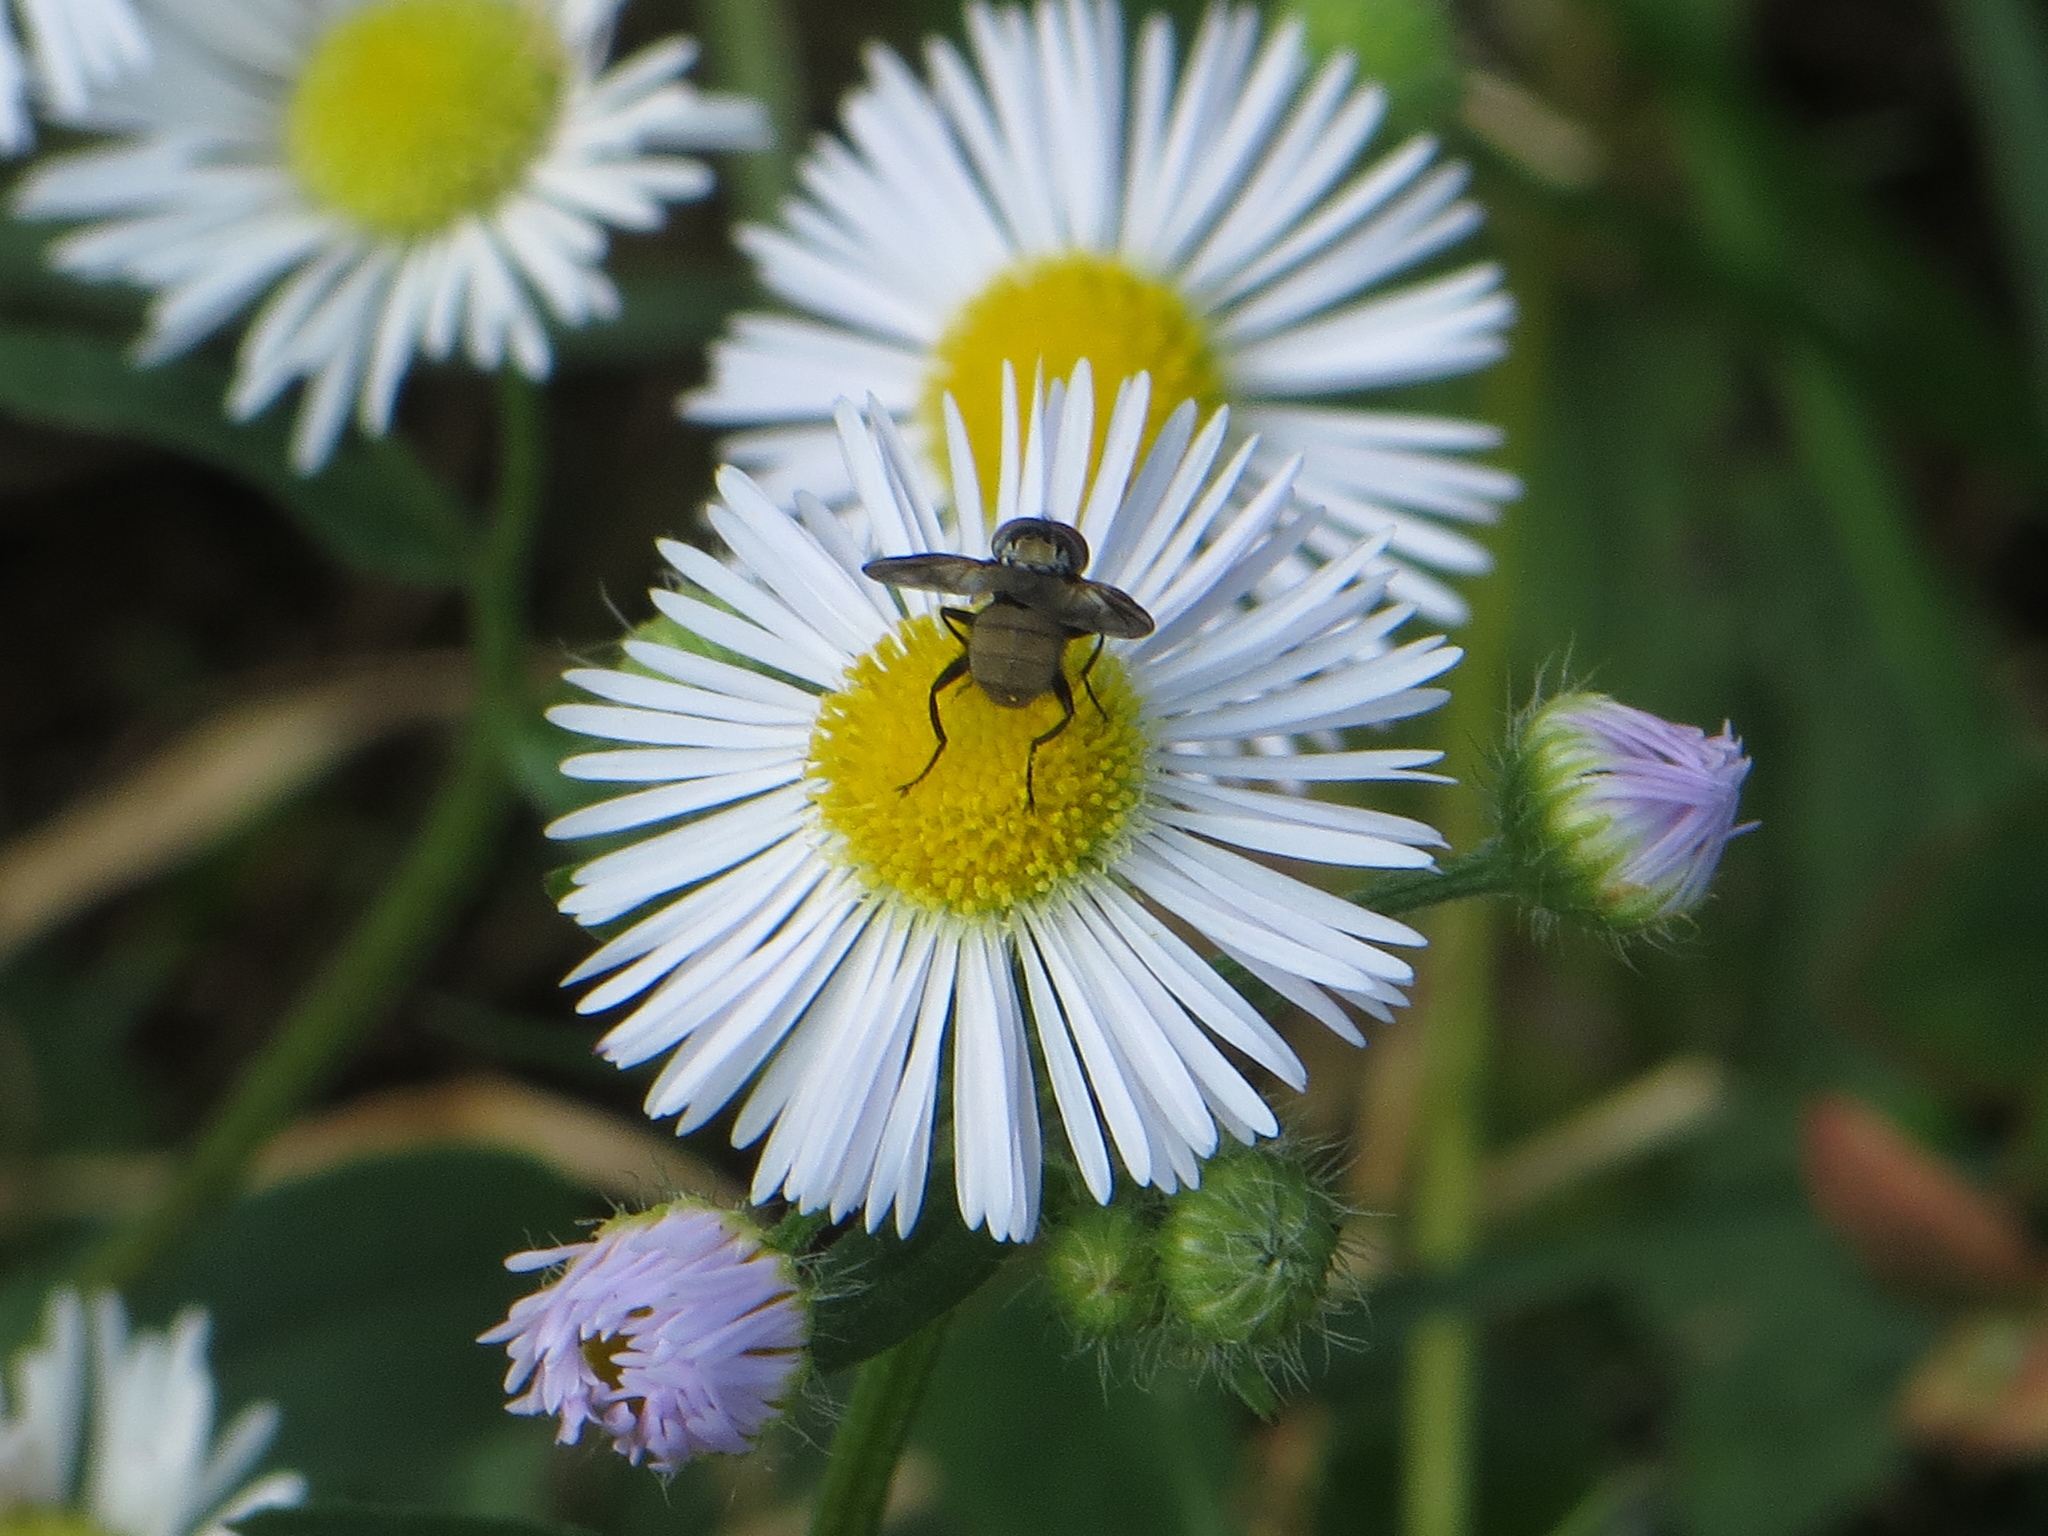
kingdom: Animalia
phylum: Arthropoda
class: Insecta
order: Diptera
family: Tachinidae
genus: Phasia
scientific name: Phasia obesa
